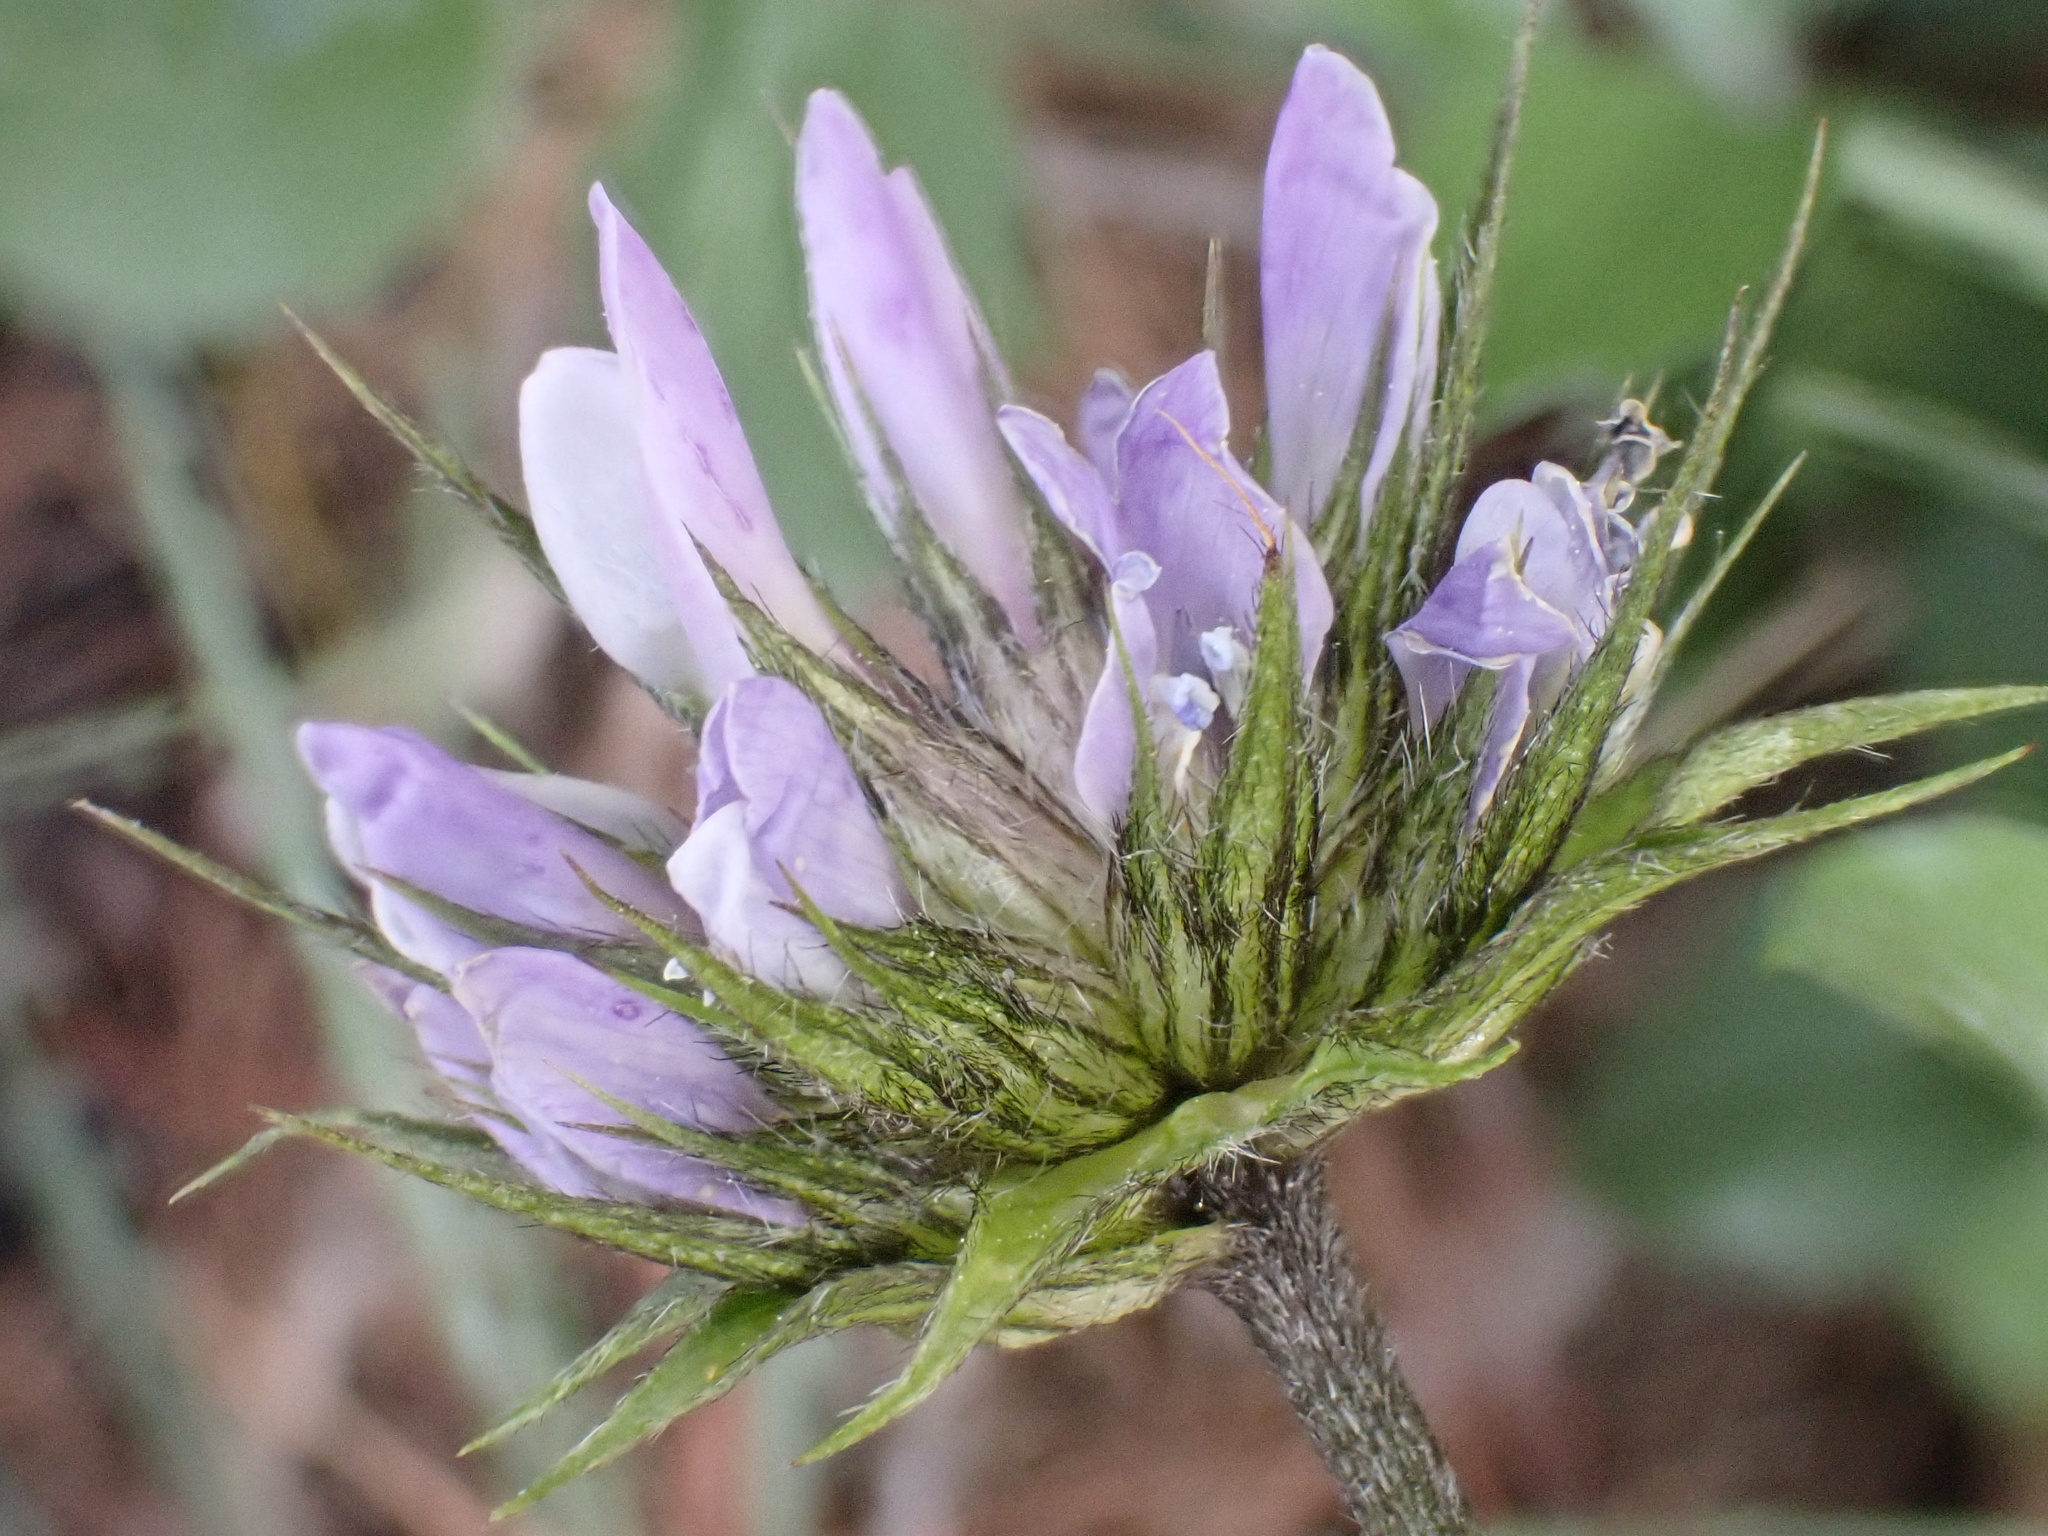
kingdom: Plantae
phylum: Tracheophyta
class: Magnoliopsida
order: Fabales
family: Fabaceae
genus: Bituminaria
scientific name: Bituminaria bituminosa
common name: Arabian pea
